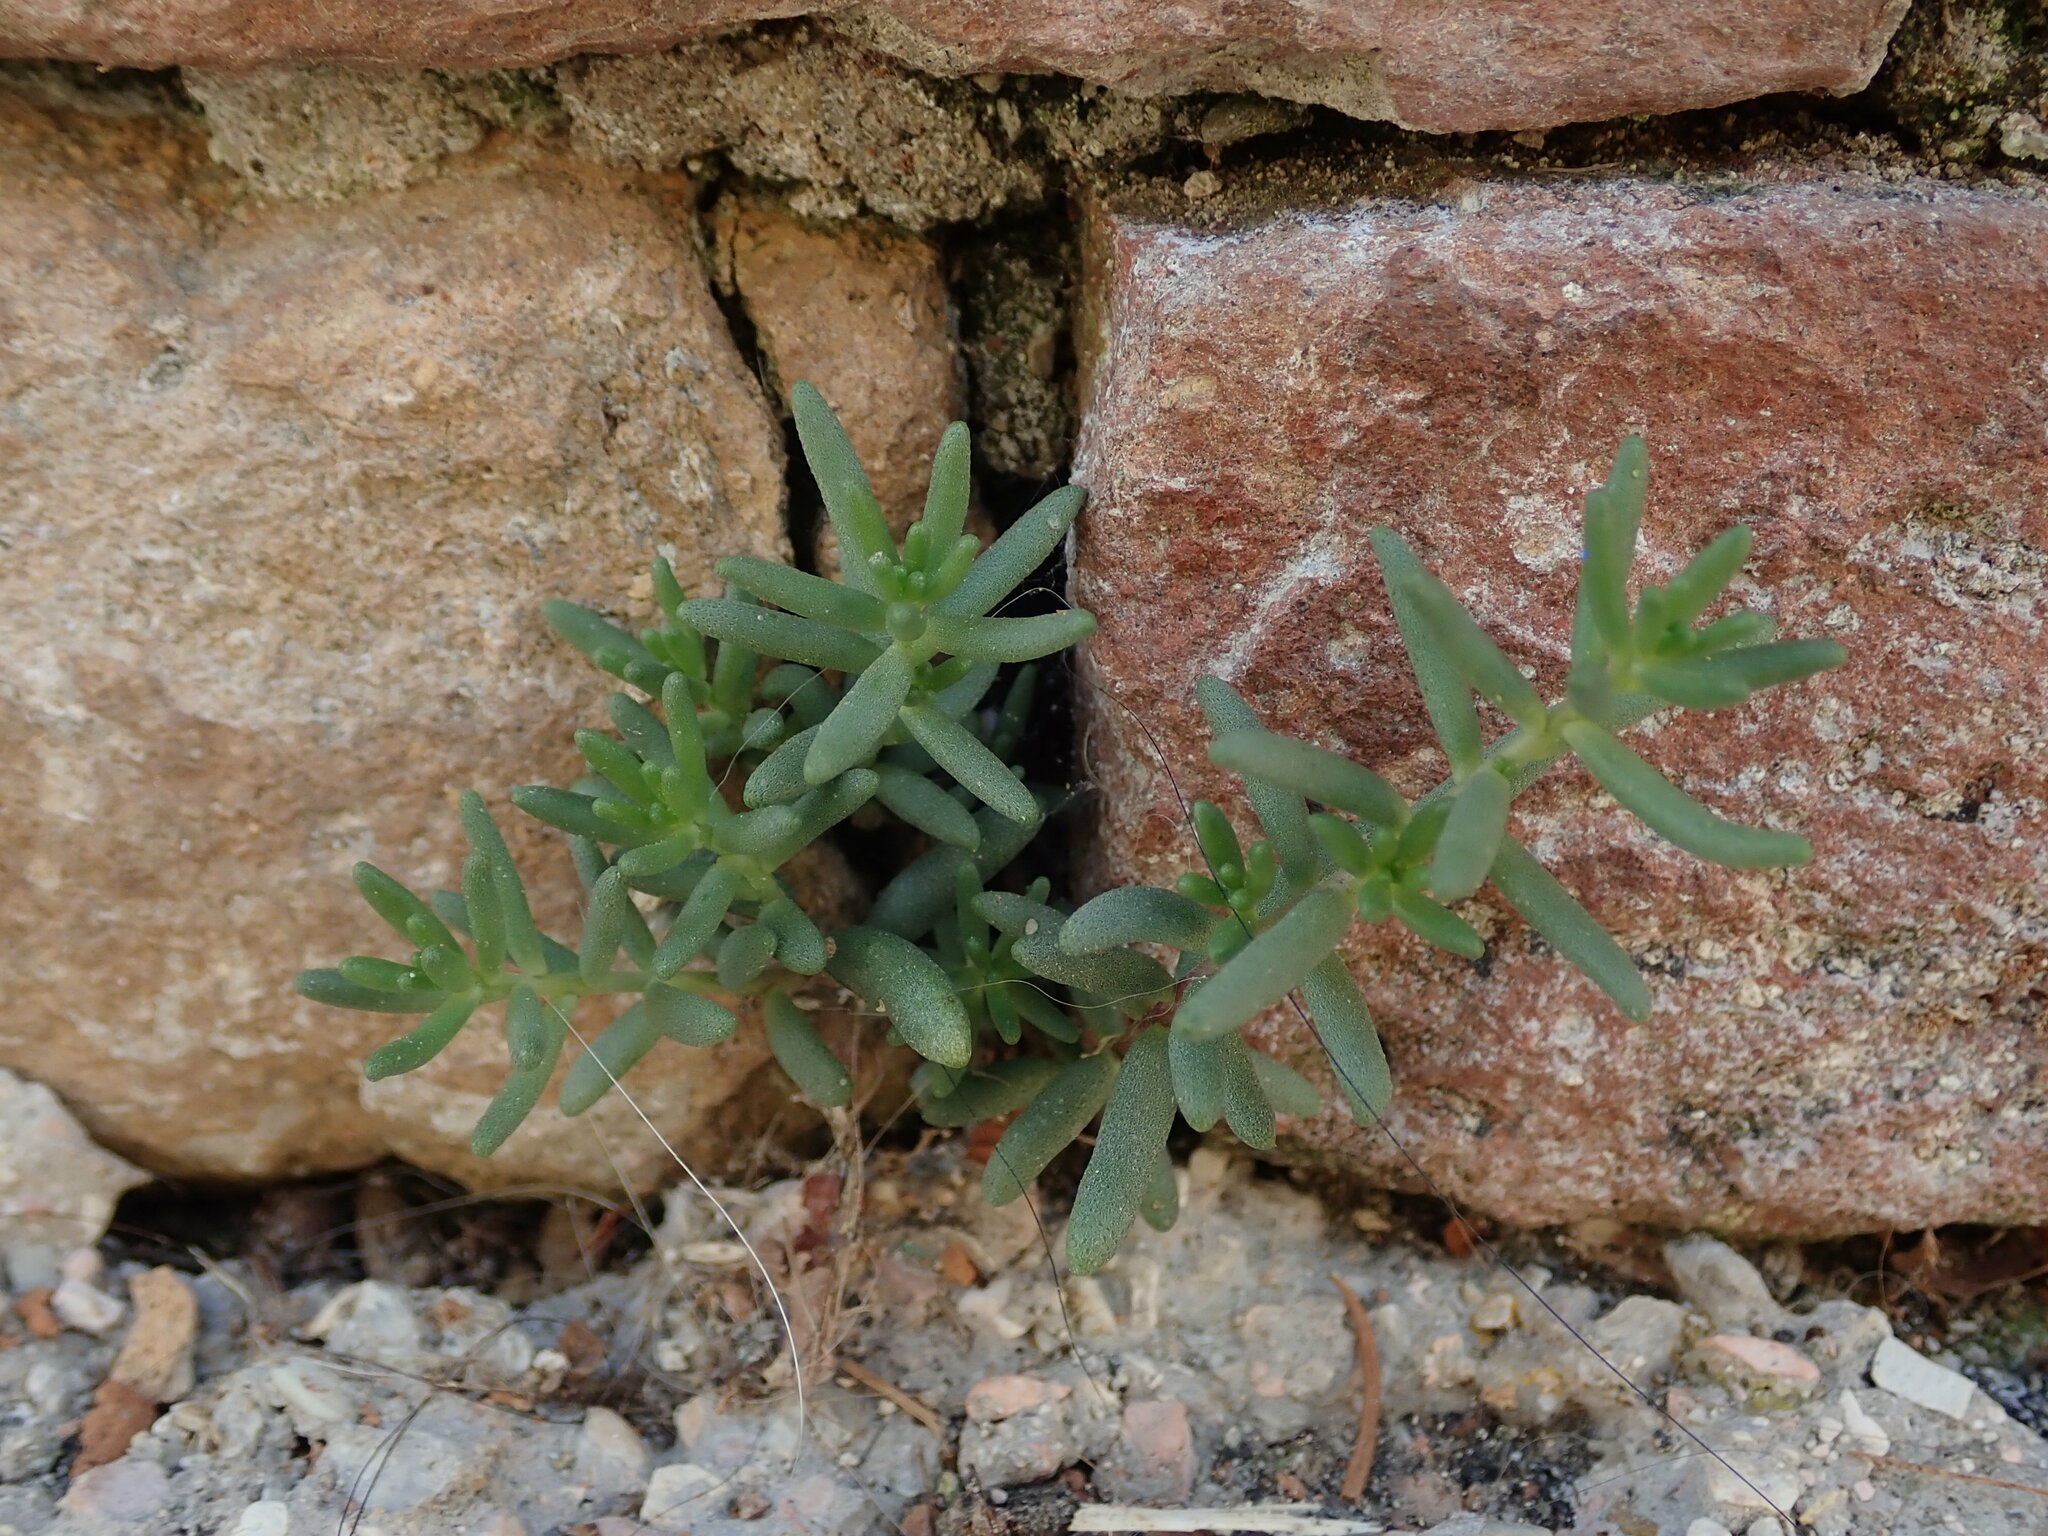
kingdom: Plantae
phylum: Tracheophyta
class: Magnoliopsida
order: Saxifragales
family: Crassulaceae
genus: Sedum
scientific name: Sedum album
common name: White stonecrop
